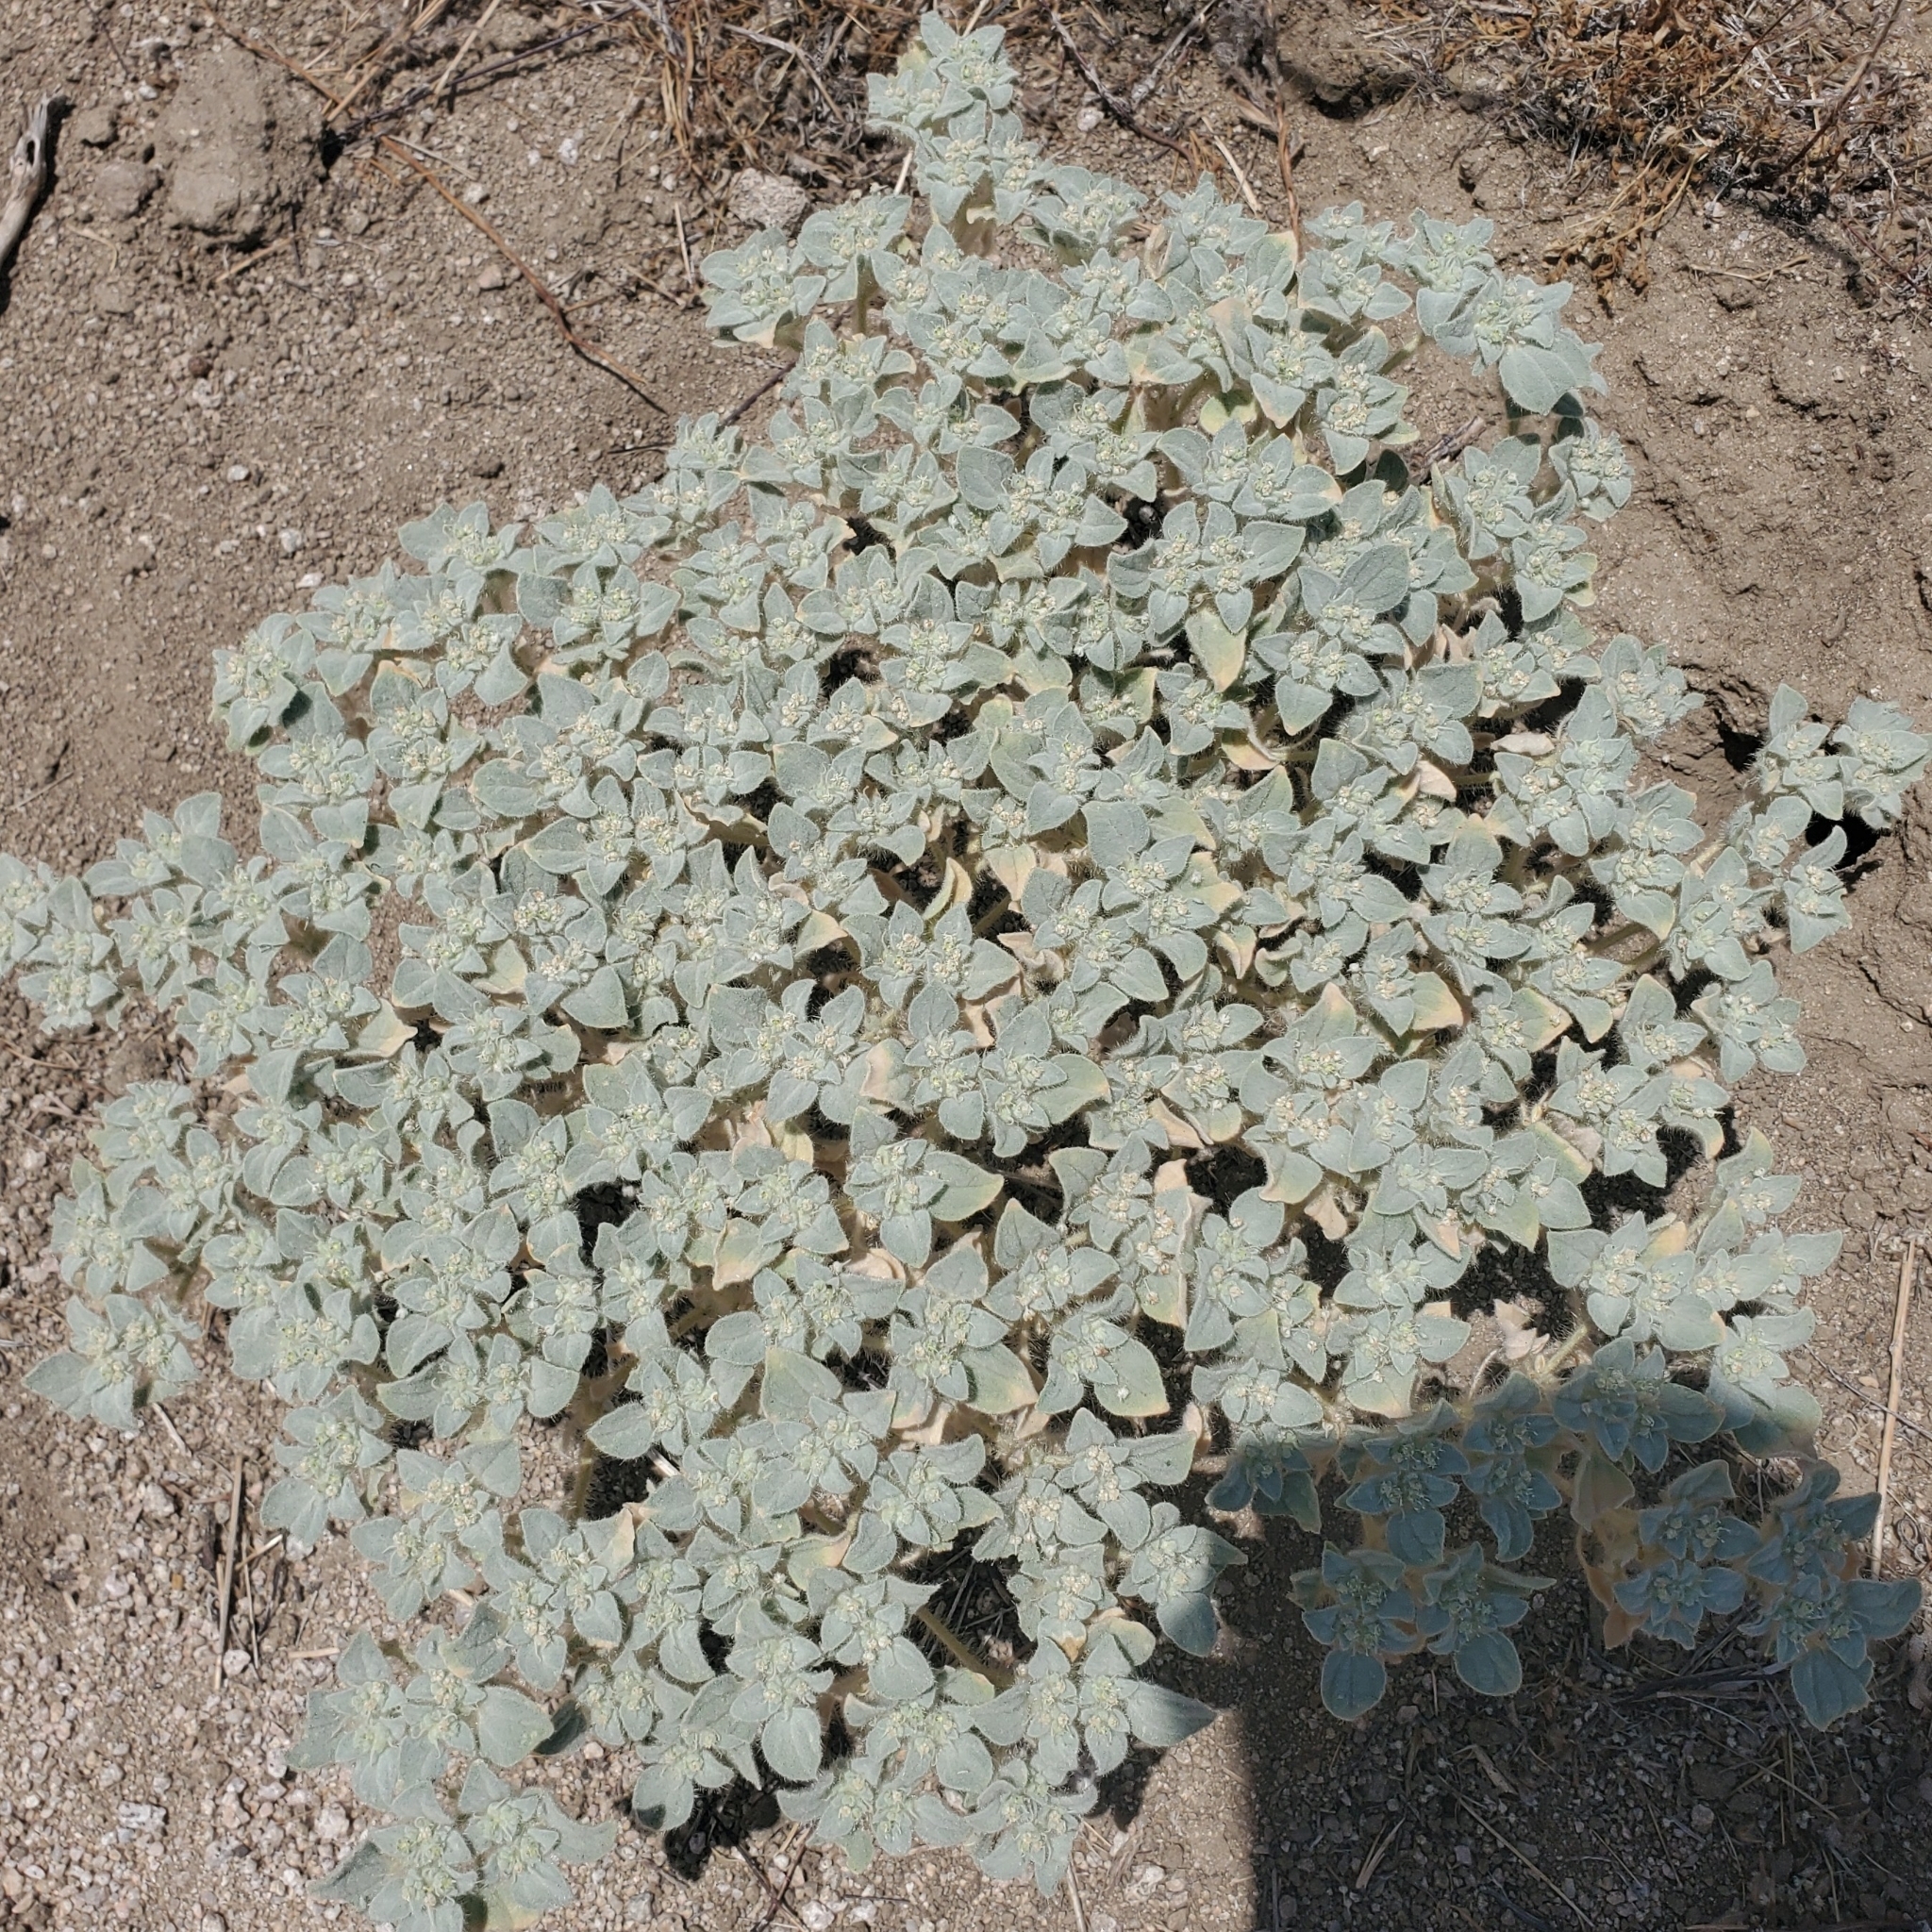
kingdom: Plantae
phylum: Tracheophyta
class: Magnoliopsida
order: Malpighiales
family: Euphorbiaceae
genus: Croton
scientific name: Croton setiger
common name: Dove weed
